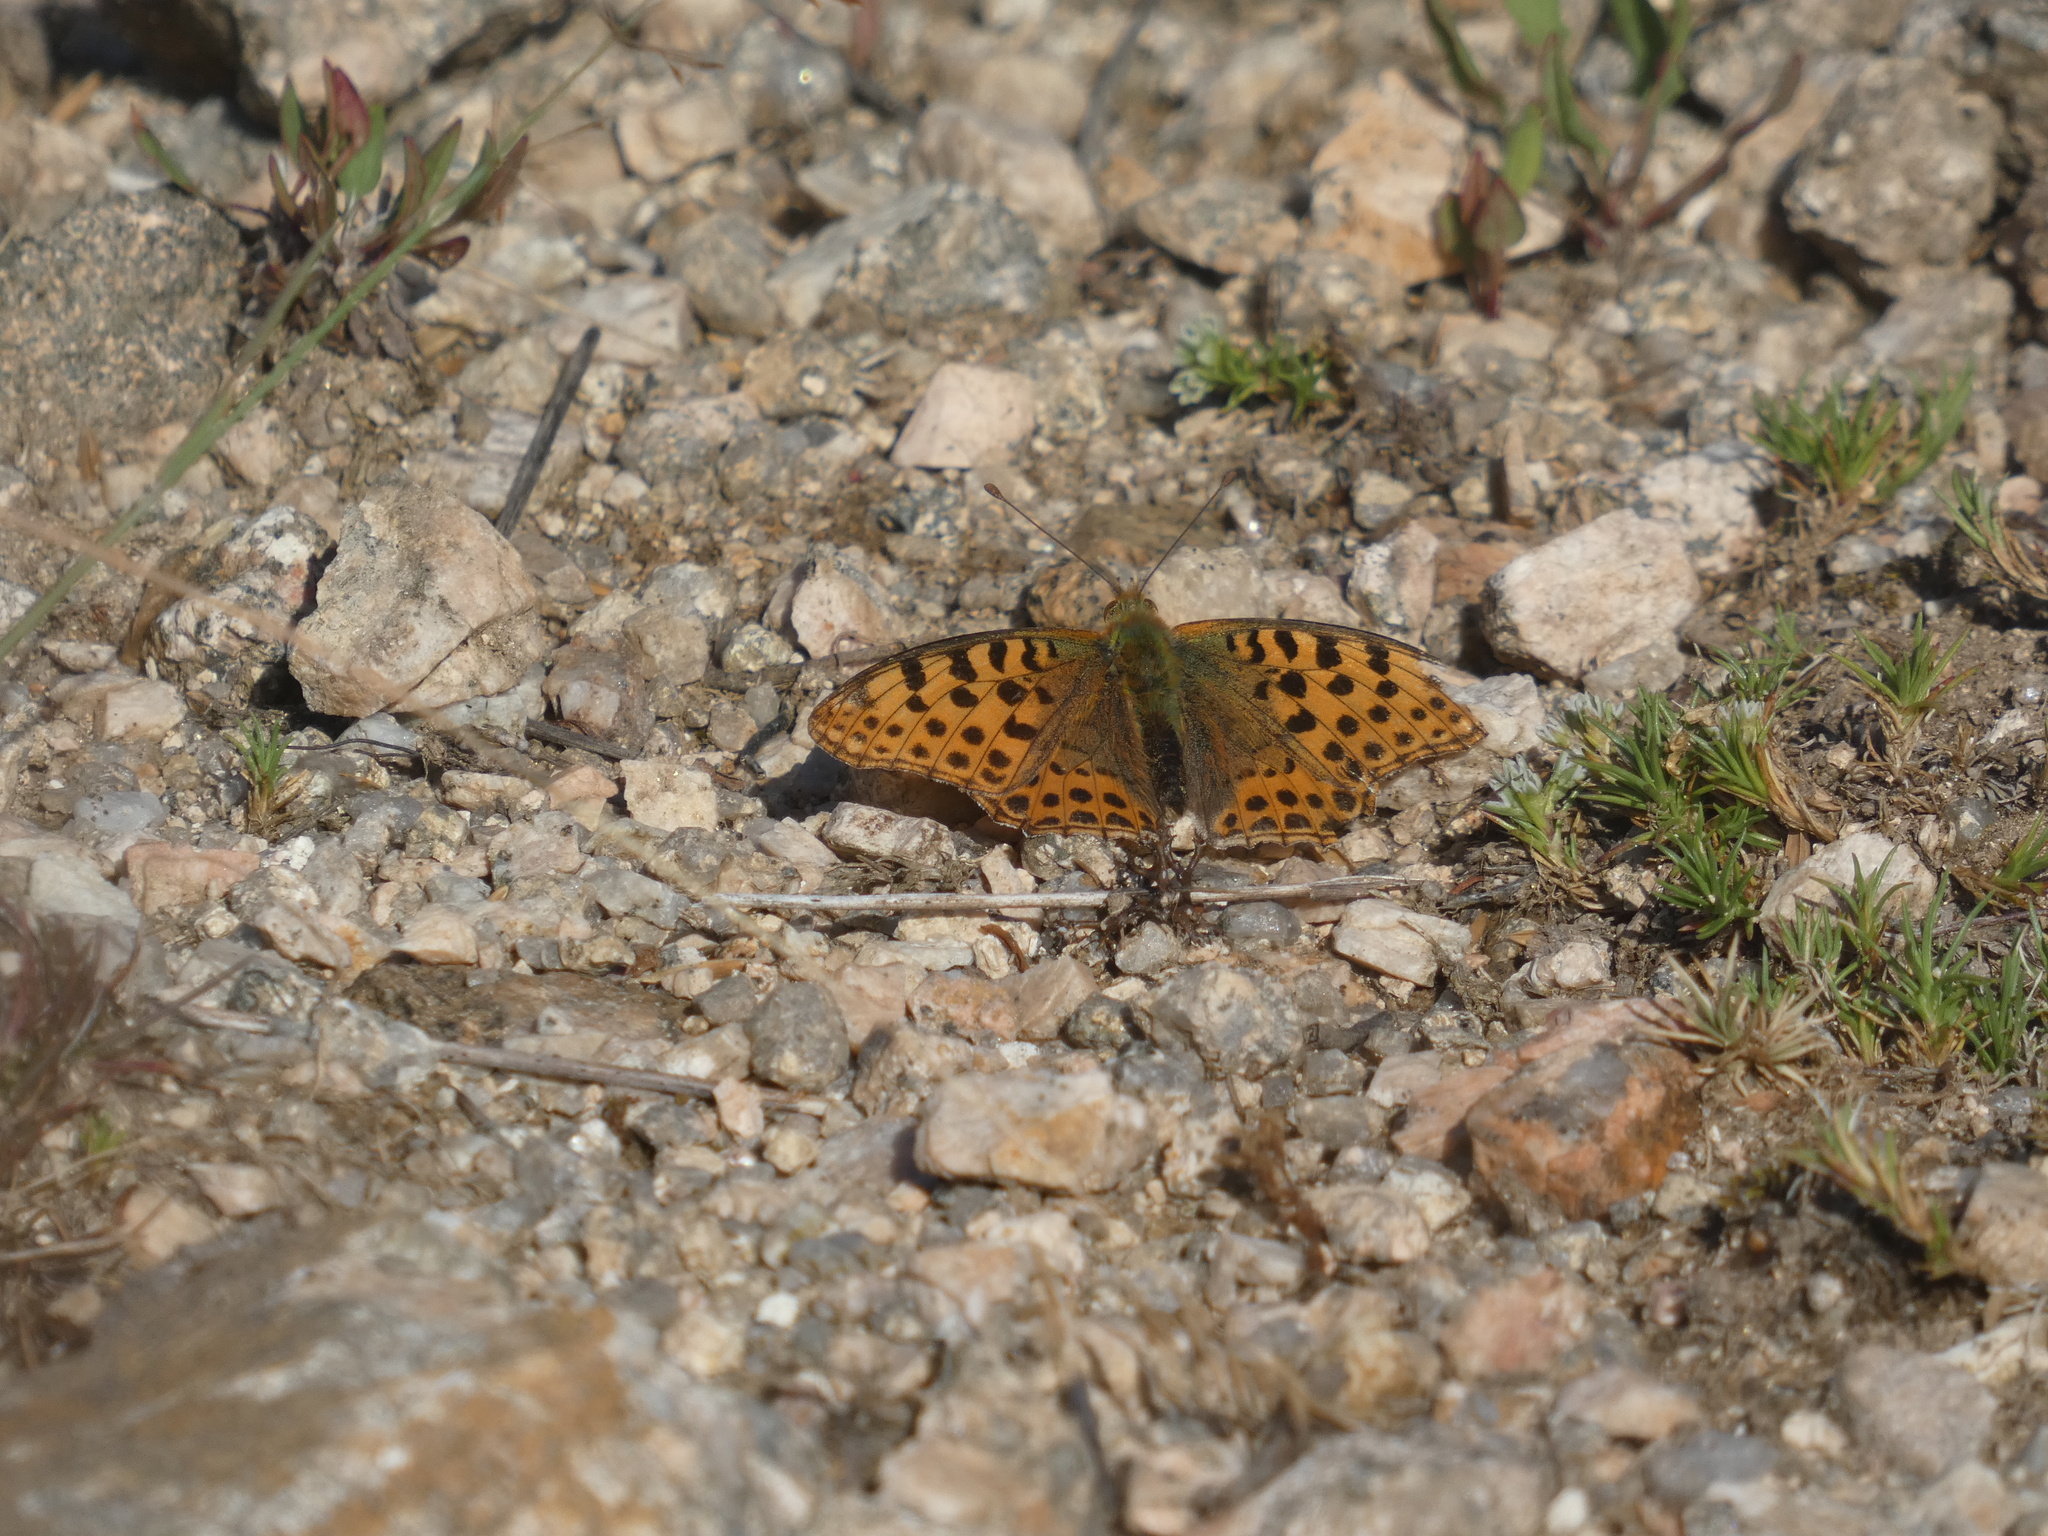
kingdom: Animalia
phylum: Arthropoda
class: Insecta
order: Lepidoptera
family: Nymphalidae
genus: Issoria
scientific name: Issoria lathonia
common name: Queen of spain fritillary
